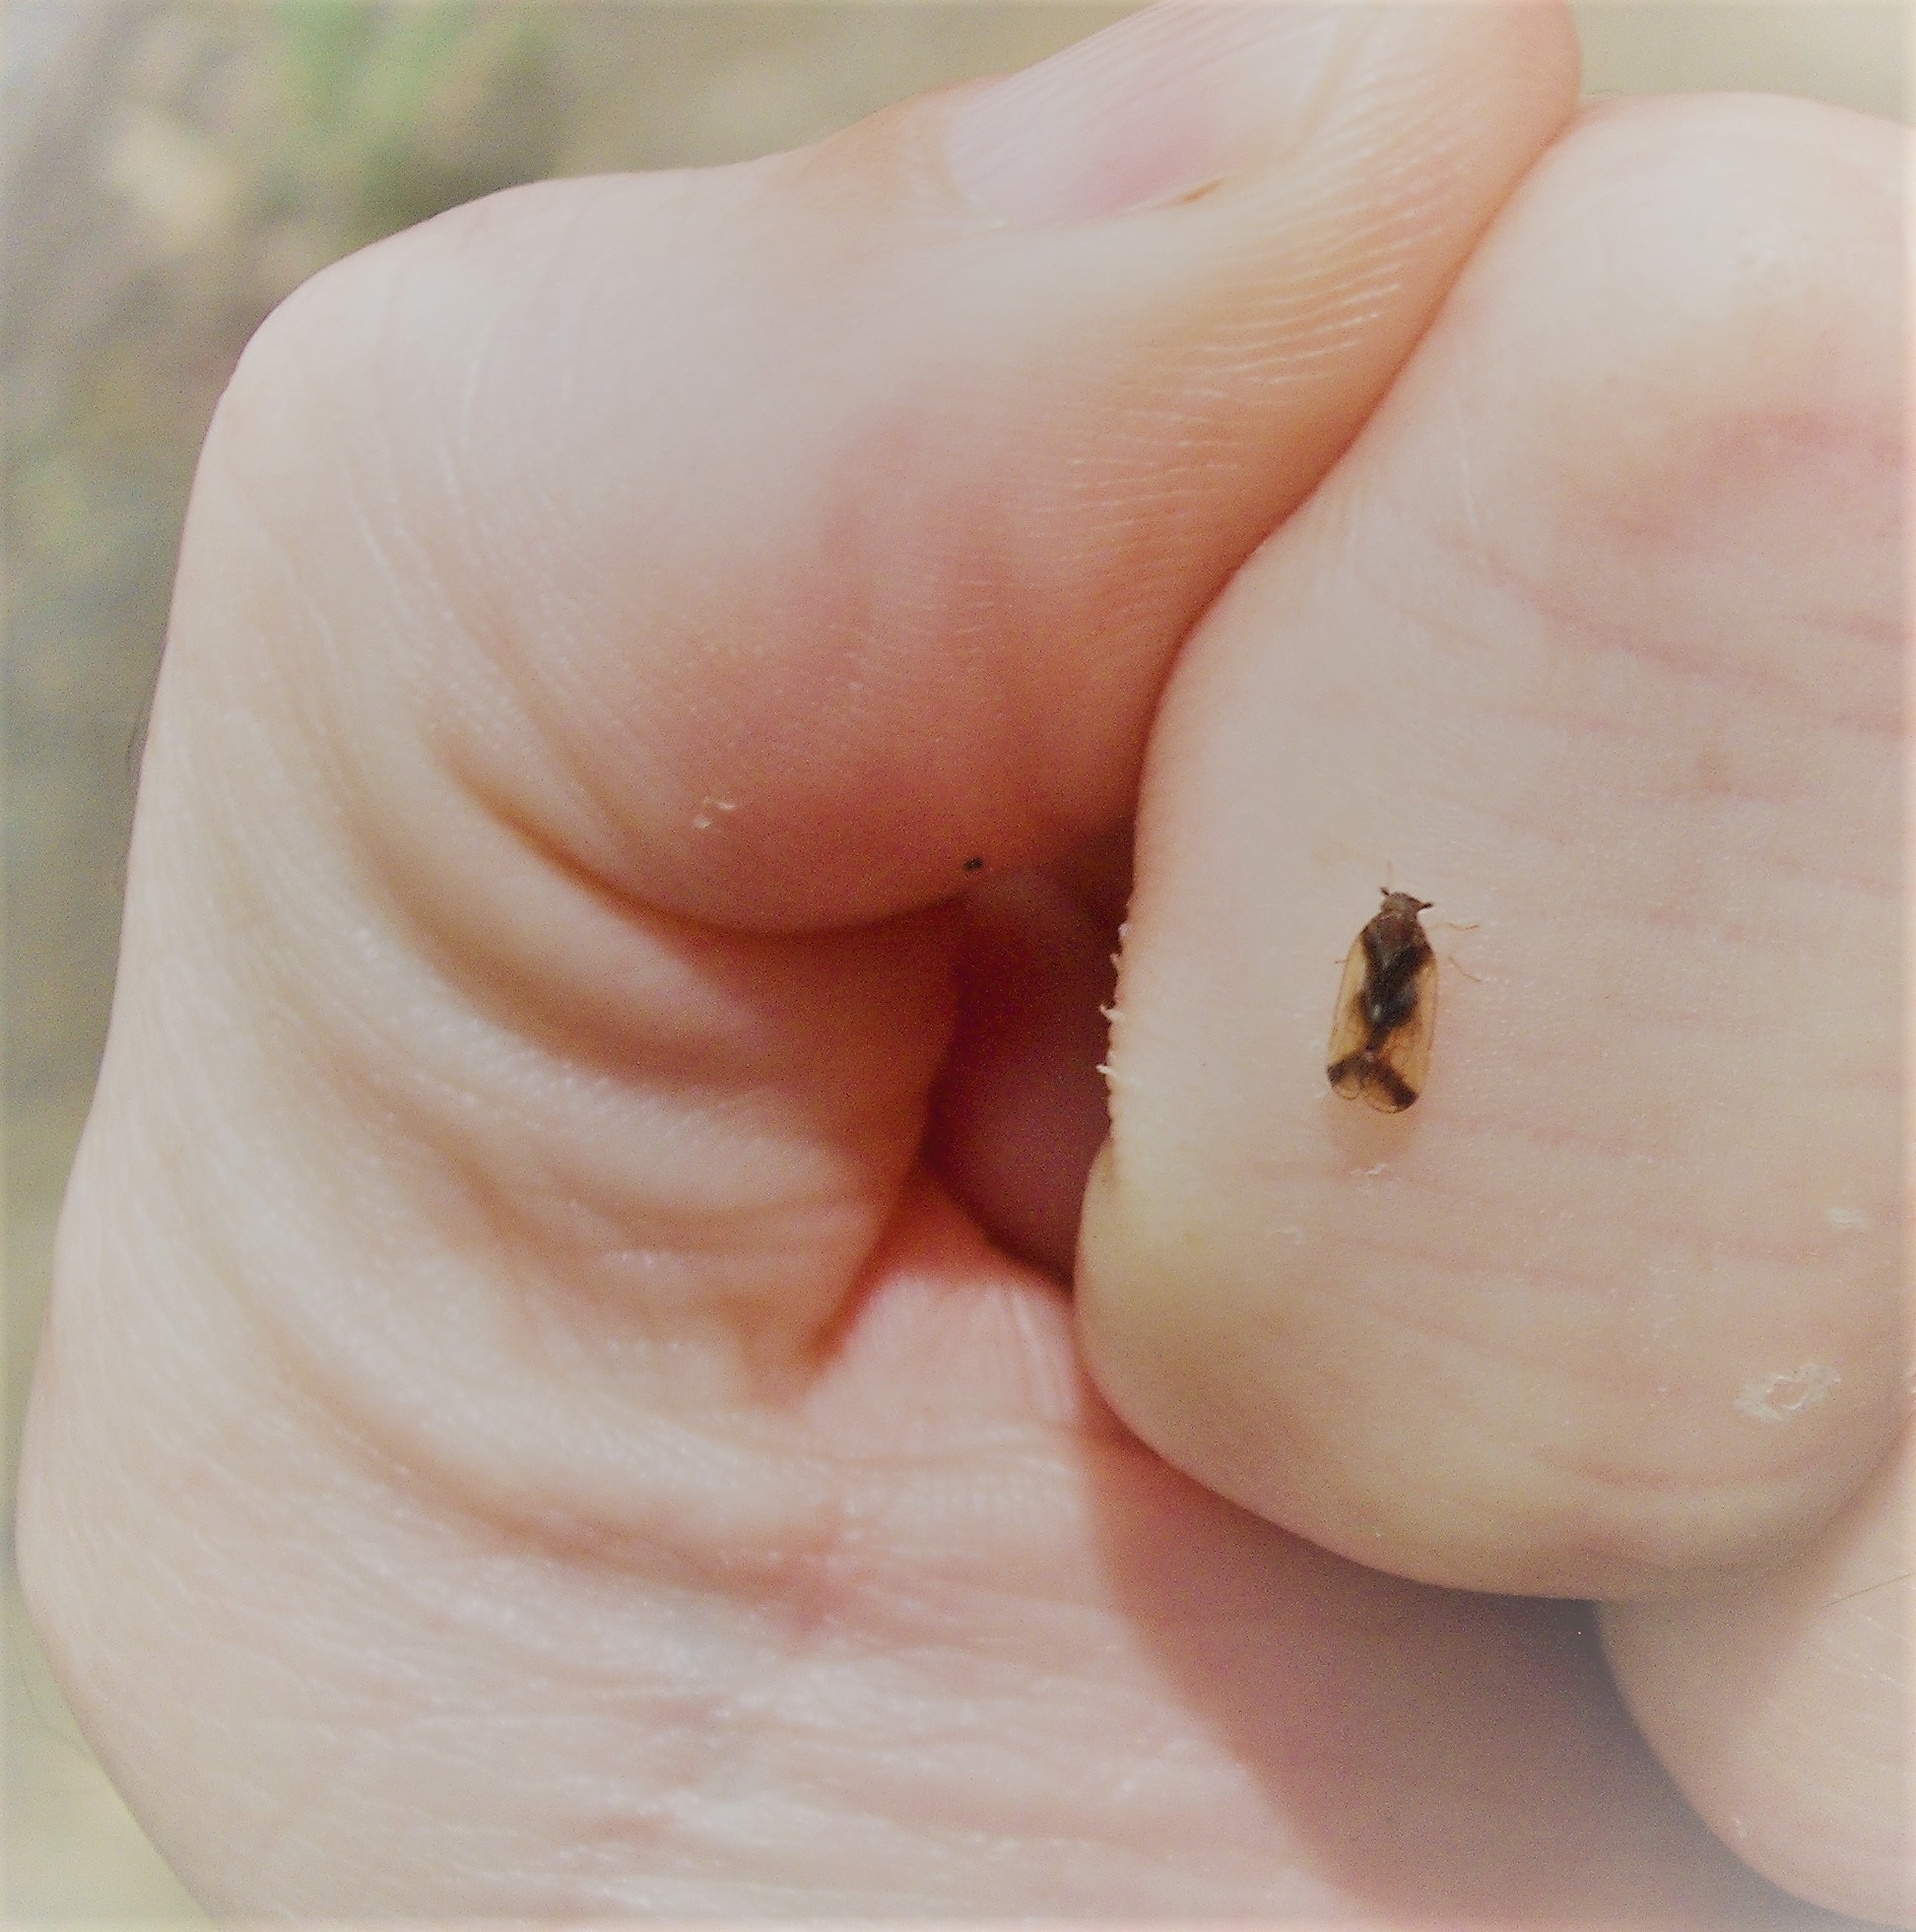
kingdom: Animalia
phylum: Arthropoda
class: Insecta
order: Hemiptera
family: Cixiidae
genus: Tiriteana
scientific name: Tiriteana clarkei
